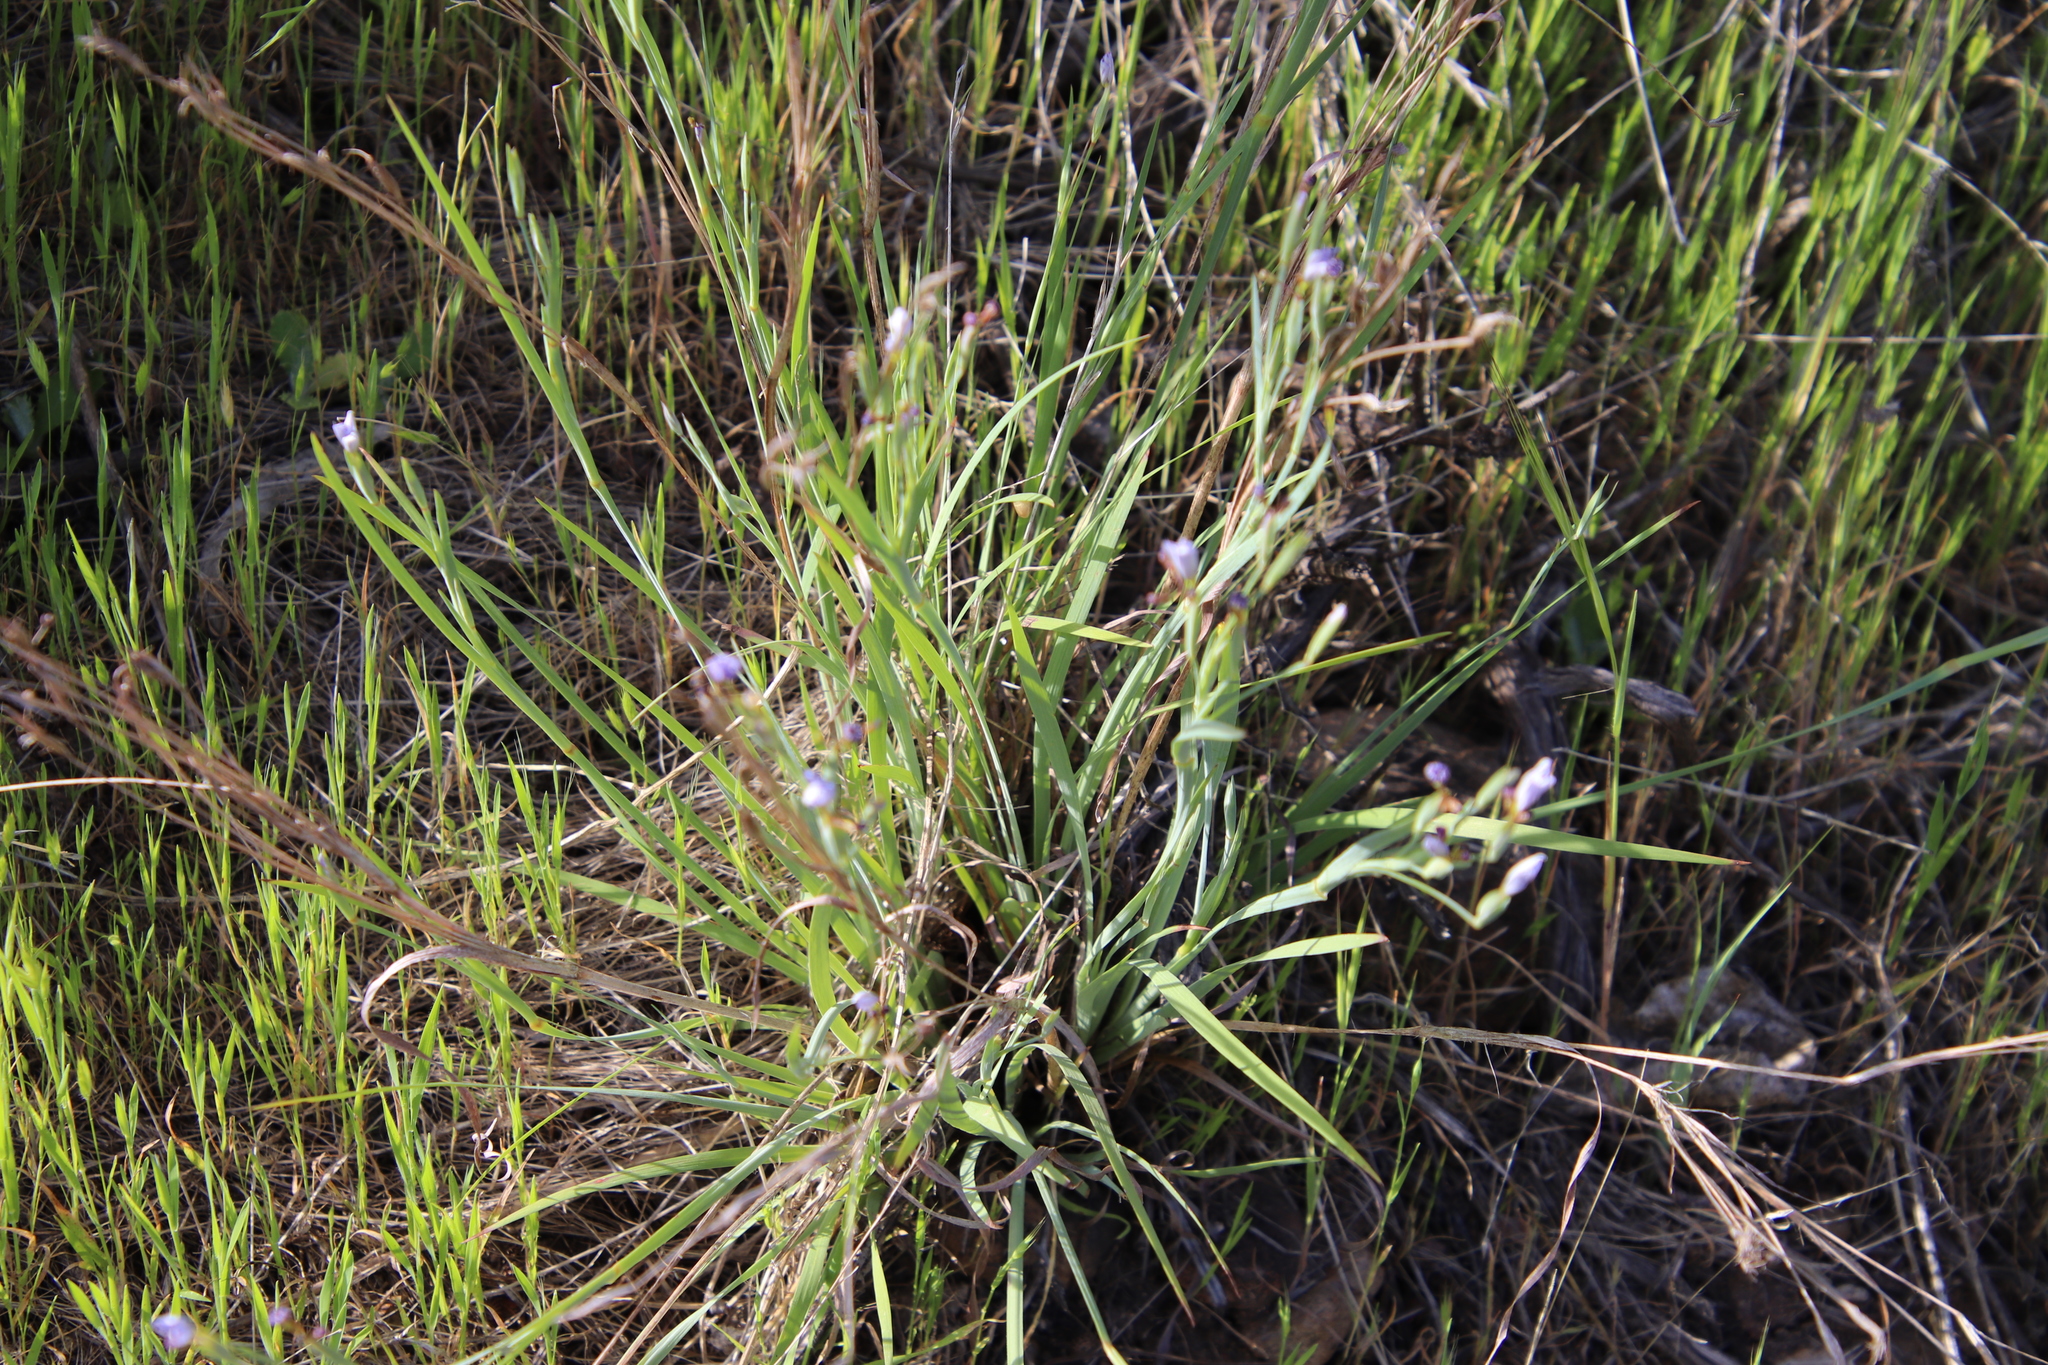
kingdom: Plantae
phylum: Tracheophyta
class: Liliopsida
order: Asparagales
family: Iridaceae
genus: Sisyrinchium
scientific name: Sisyrinchium bellum
